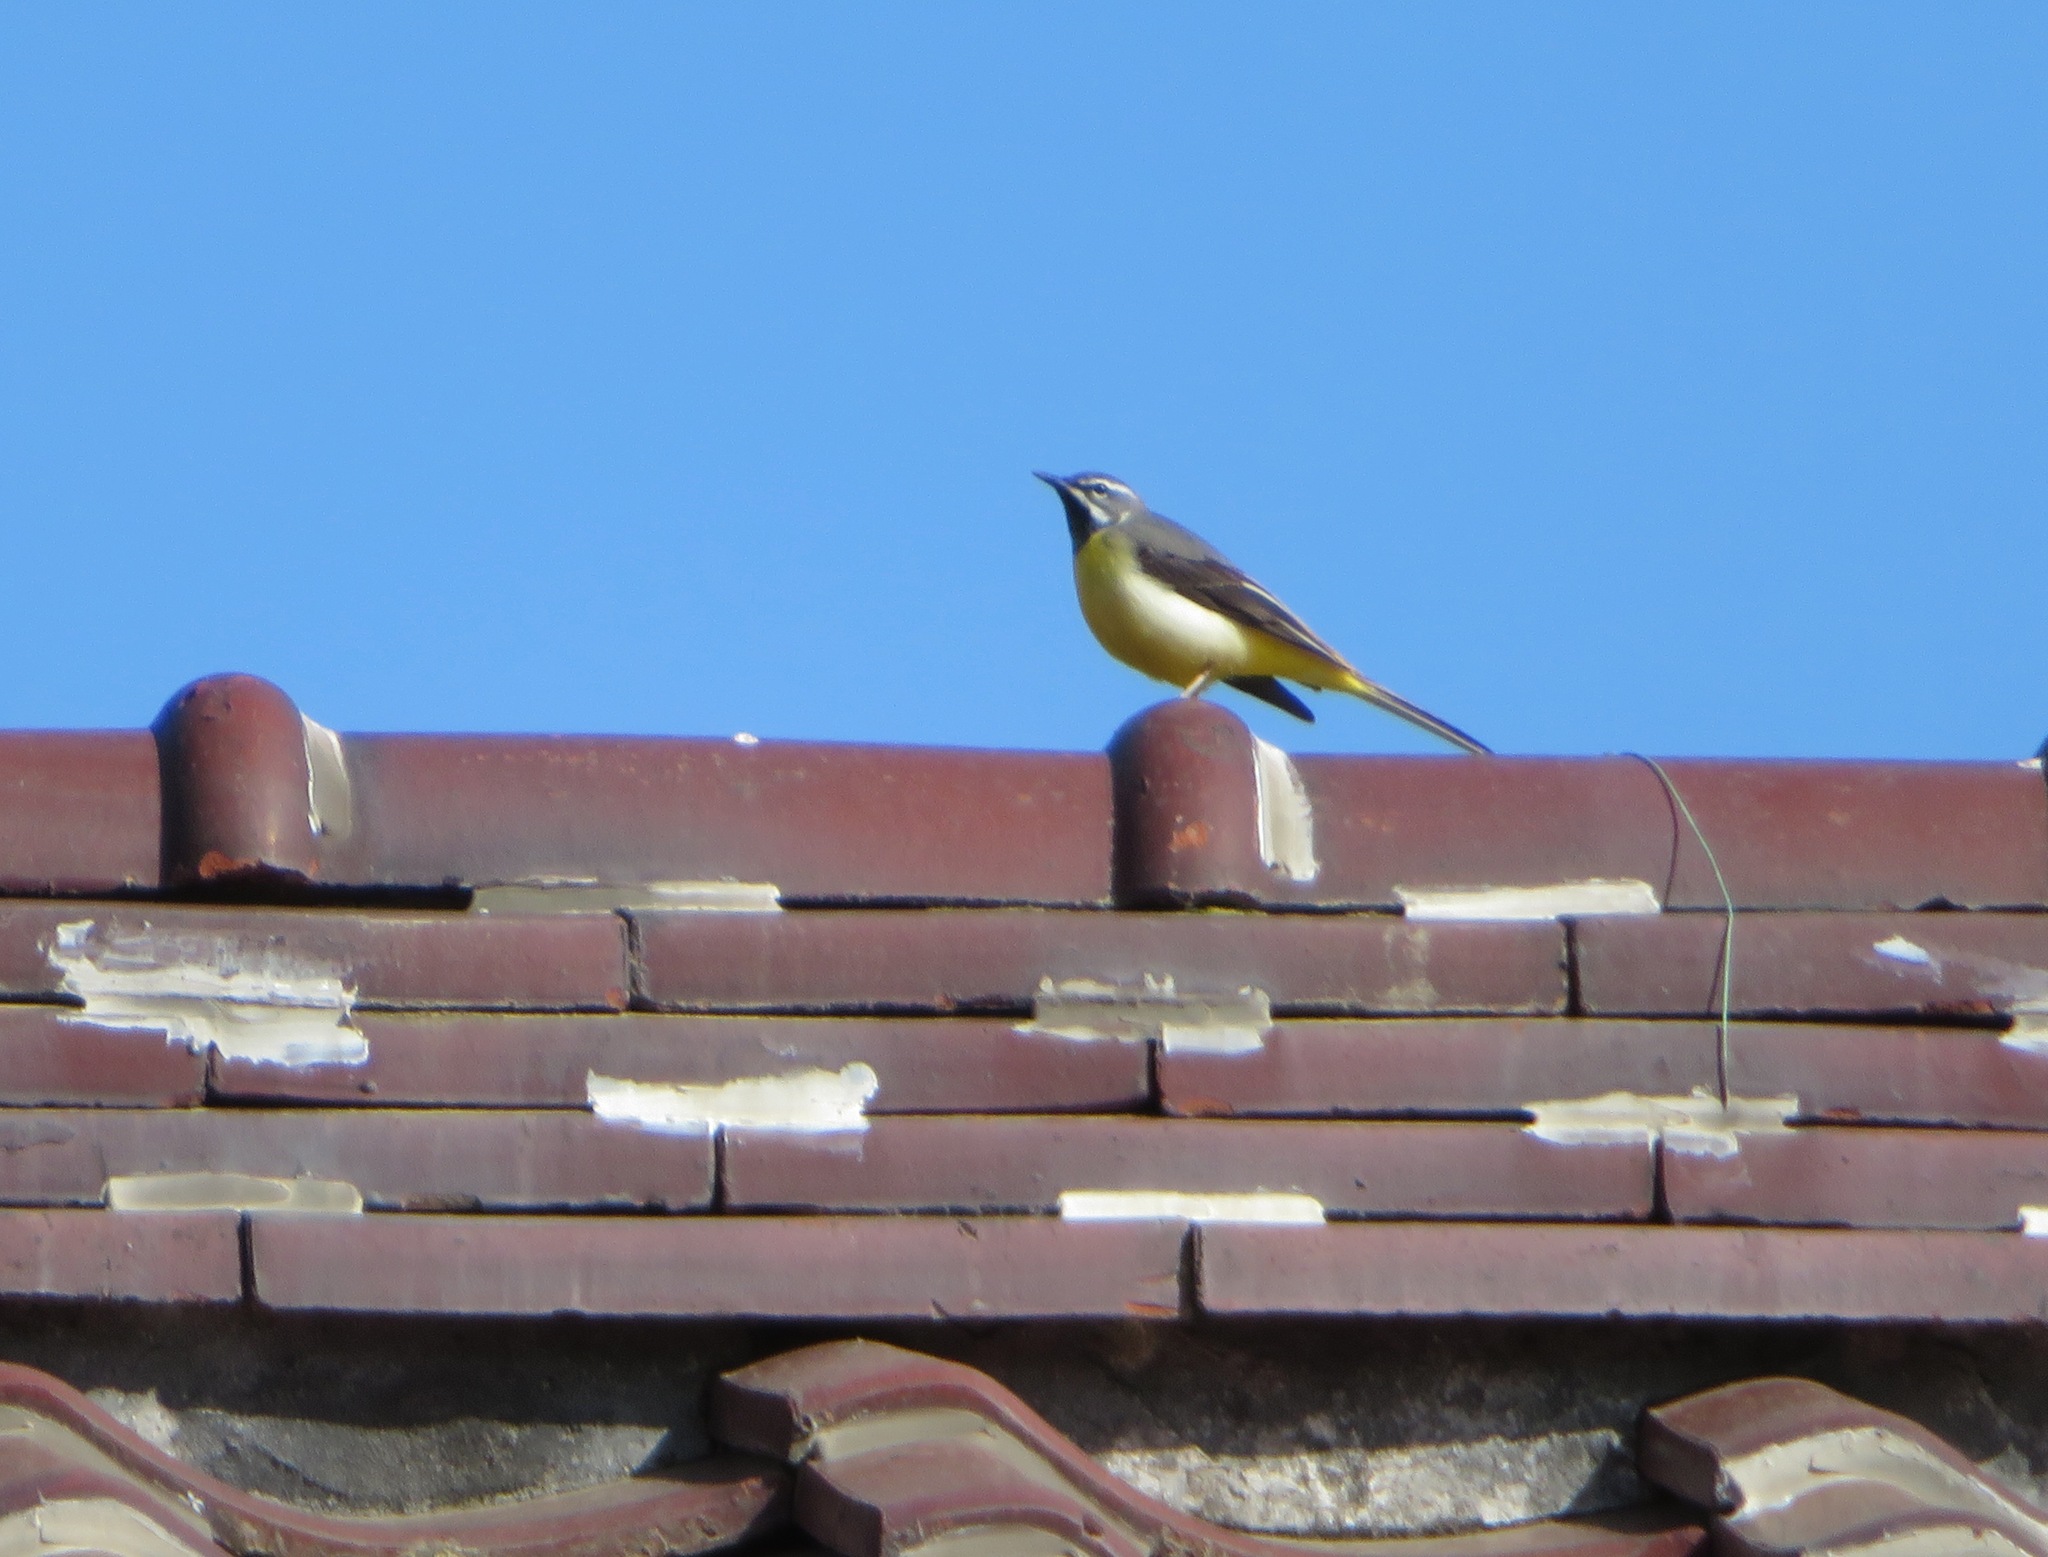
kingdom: Animalia
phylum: Chordata
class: Aves
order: Passeriformes
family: Motacillidae
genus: Motacilla
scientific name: Motacilla cinerea
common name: Grey wagtail
